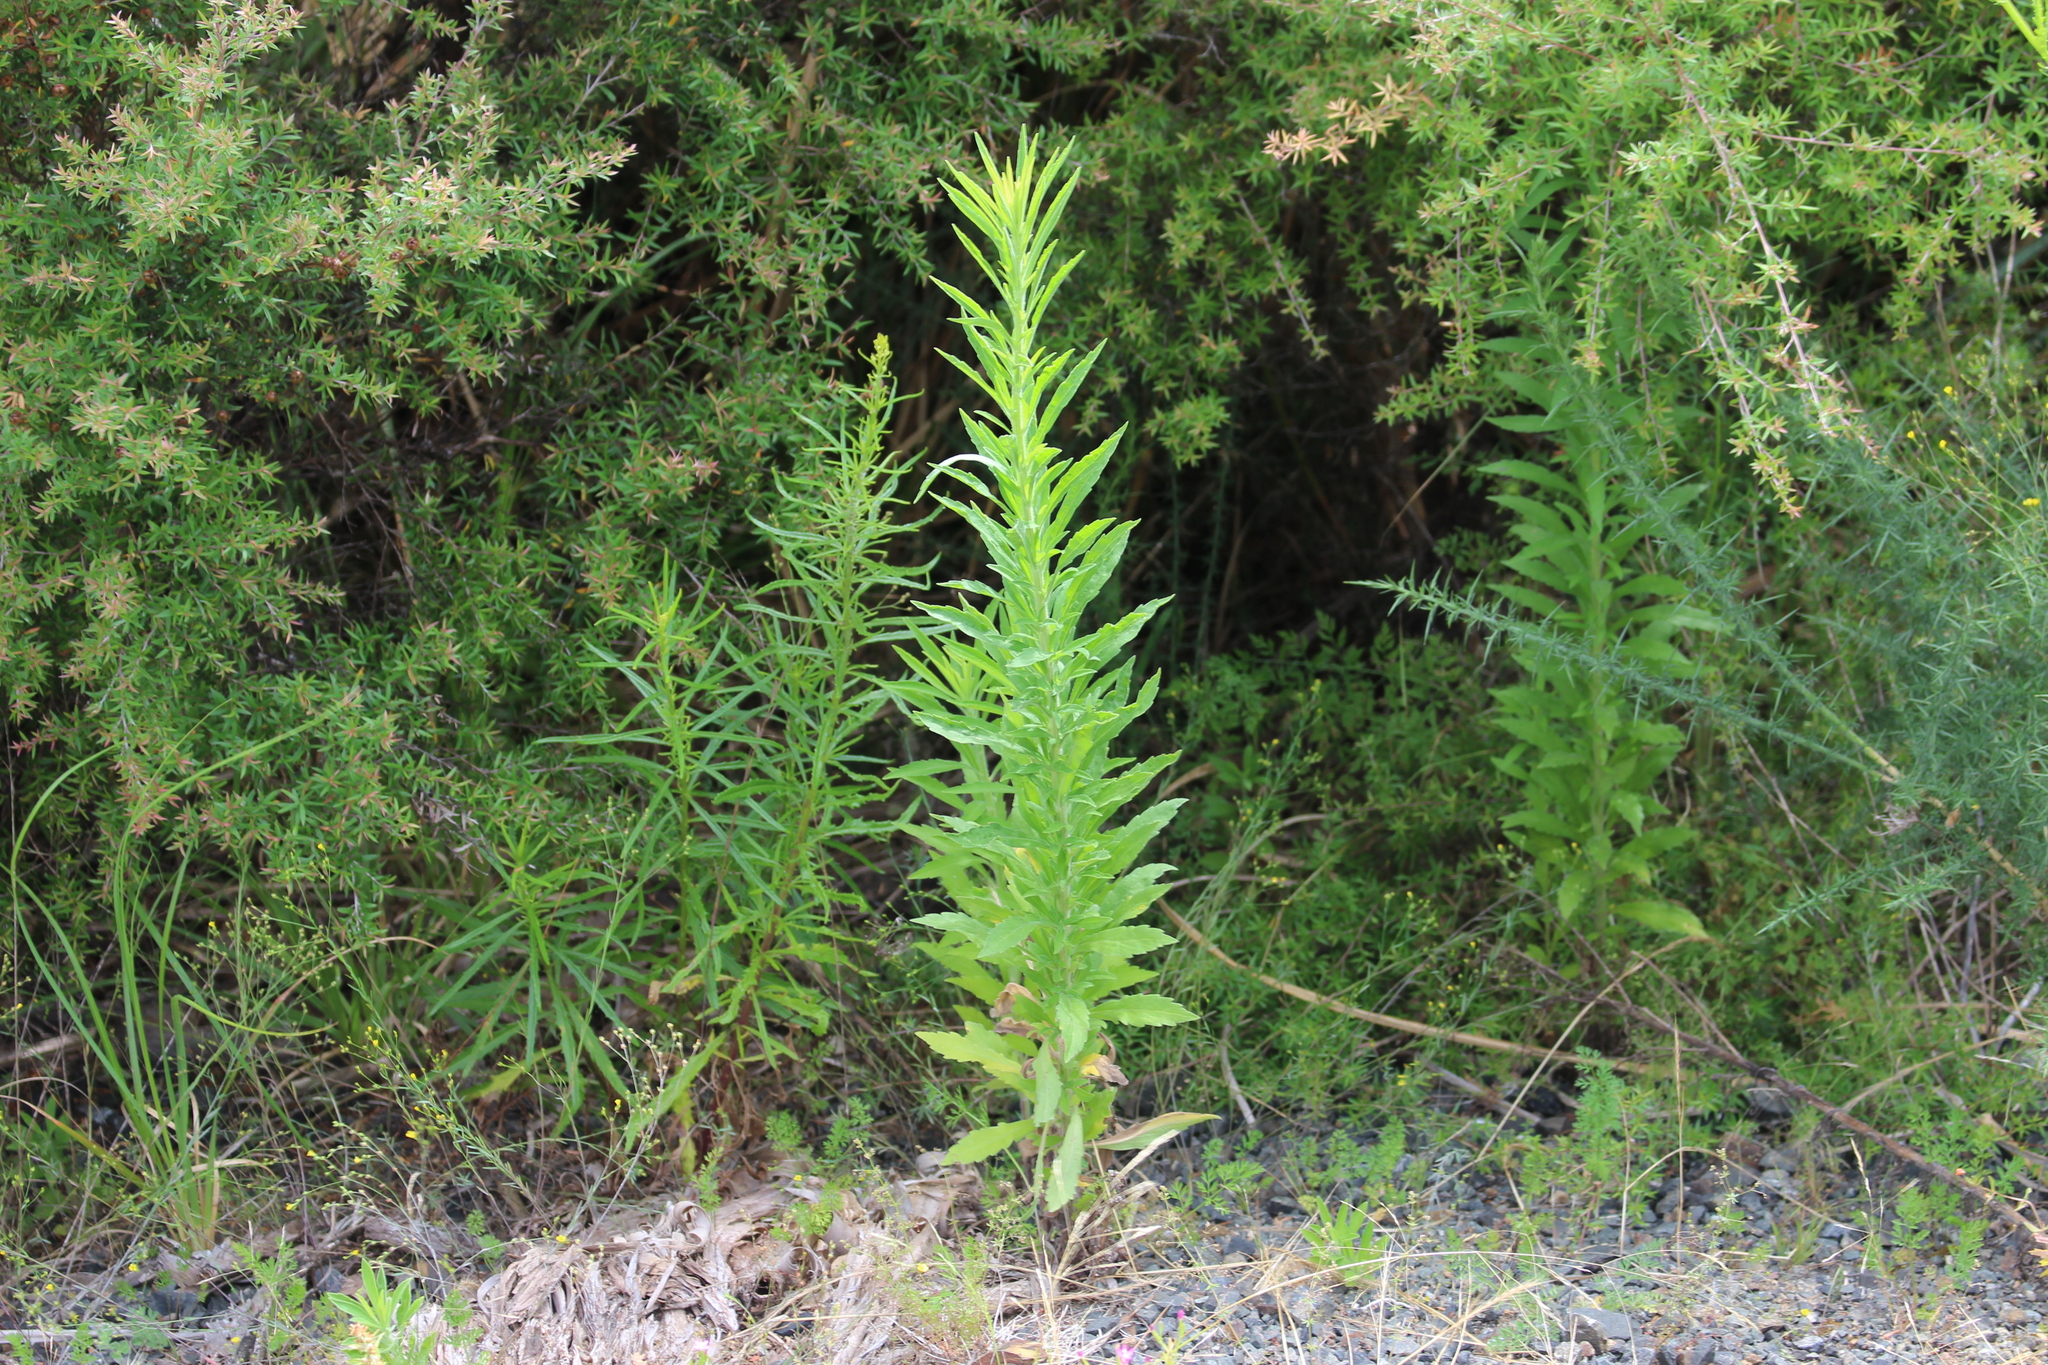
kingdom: Plantae
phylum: Tracheophyta
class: Magnoliopsida
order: Asterales
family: Asteraceae
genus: Erigeron
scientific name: Erigeron sumatrensis
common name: Daisy
